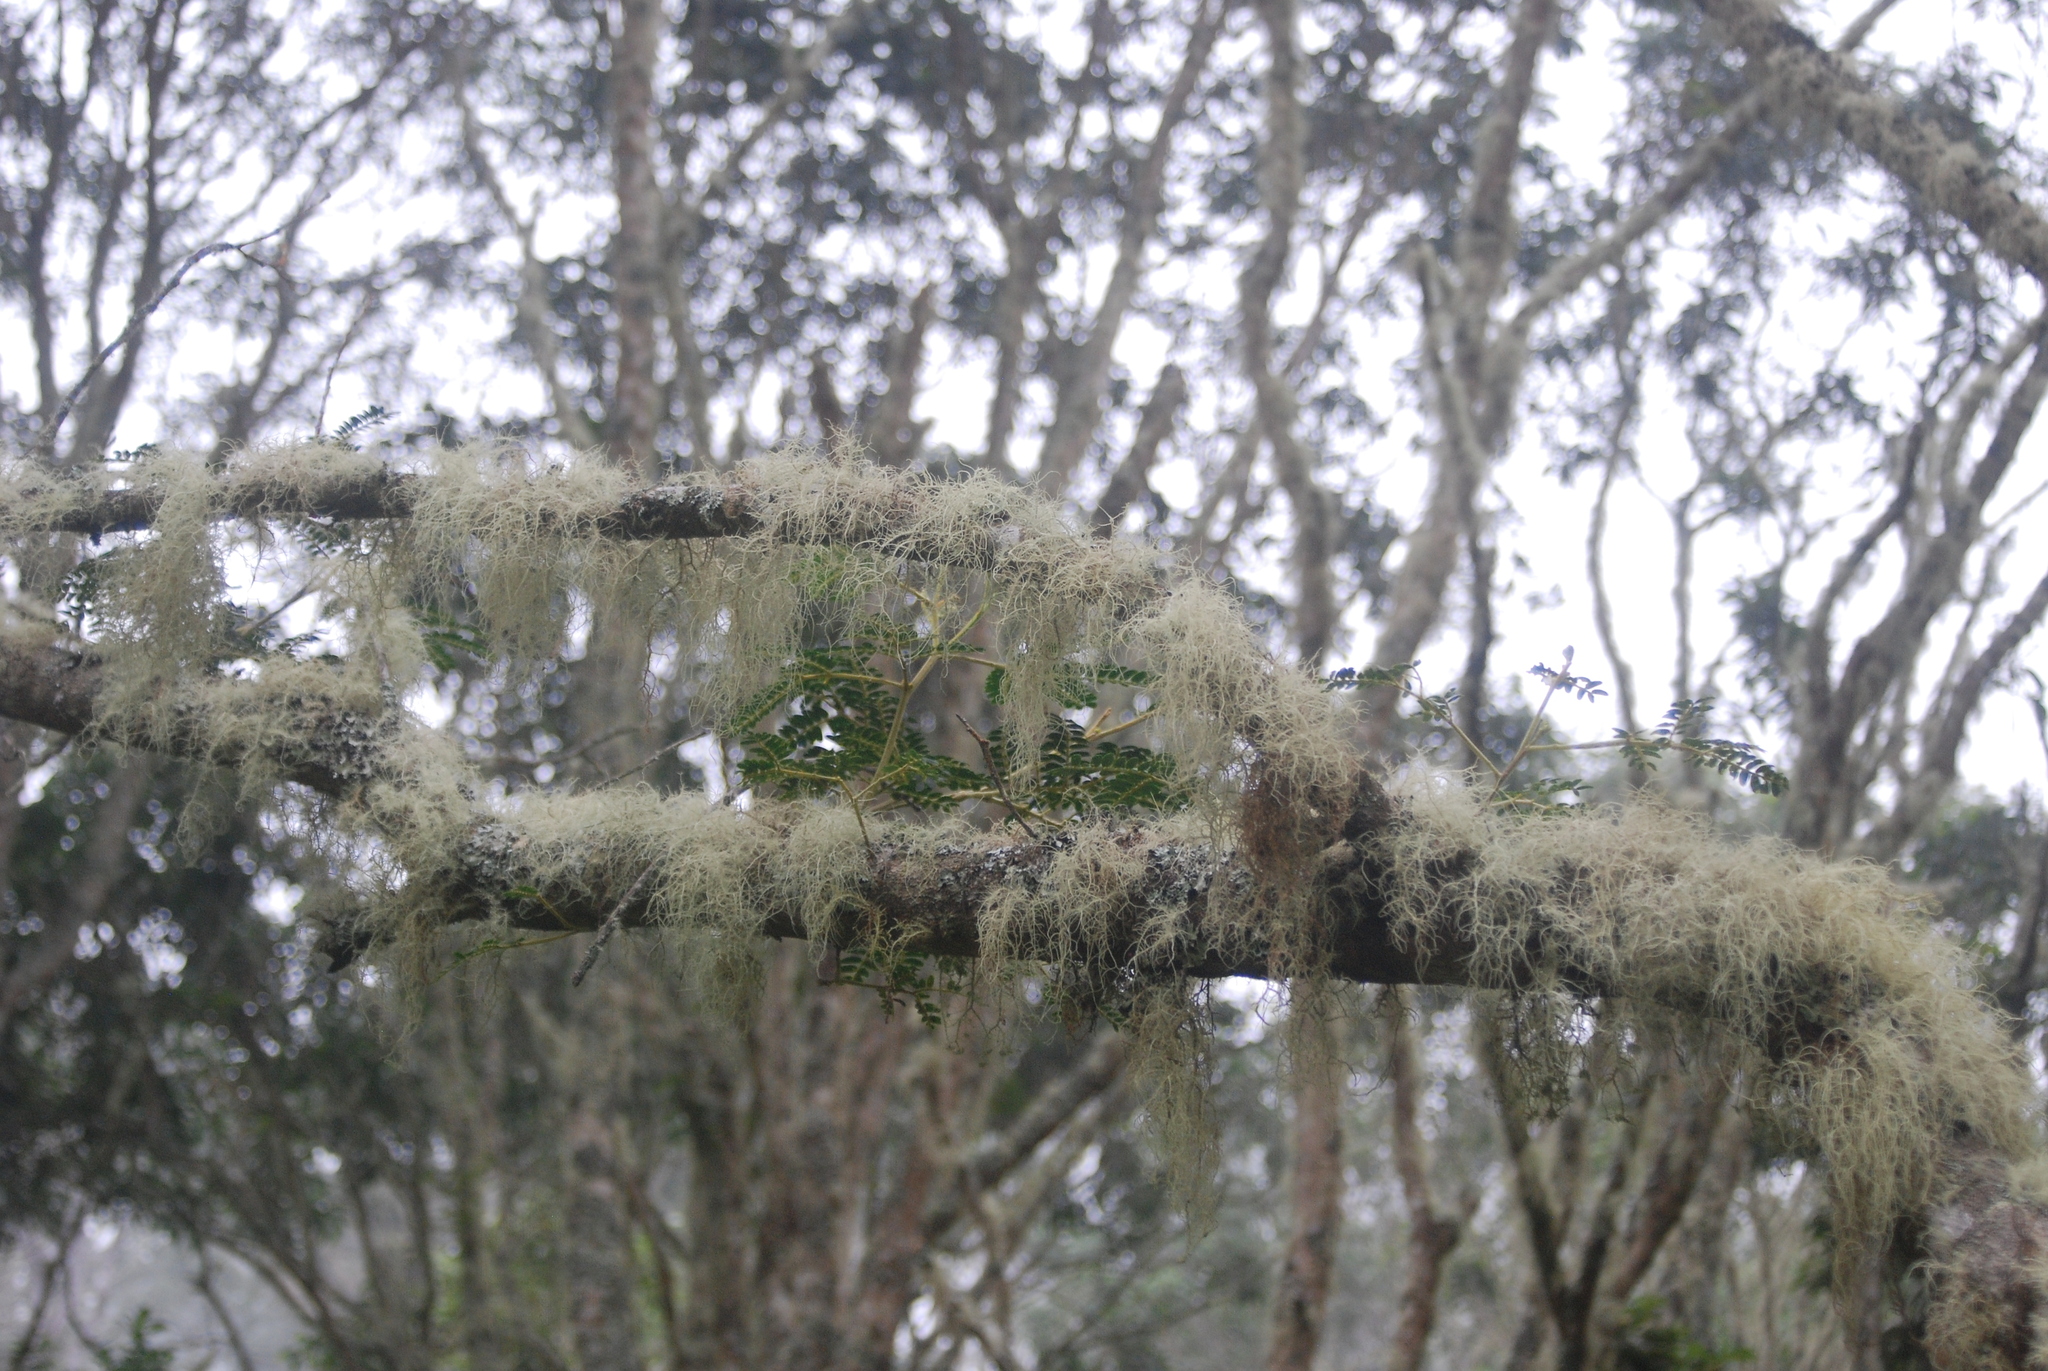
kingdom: Plantae
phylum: Tracheophyta
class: Magnoliopsida
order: Fabales
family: Fabaceae
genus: Acacia
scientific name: Acacia koa
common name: Gray koa
